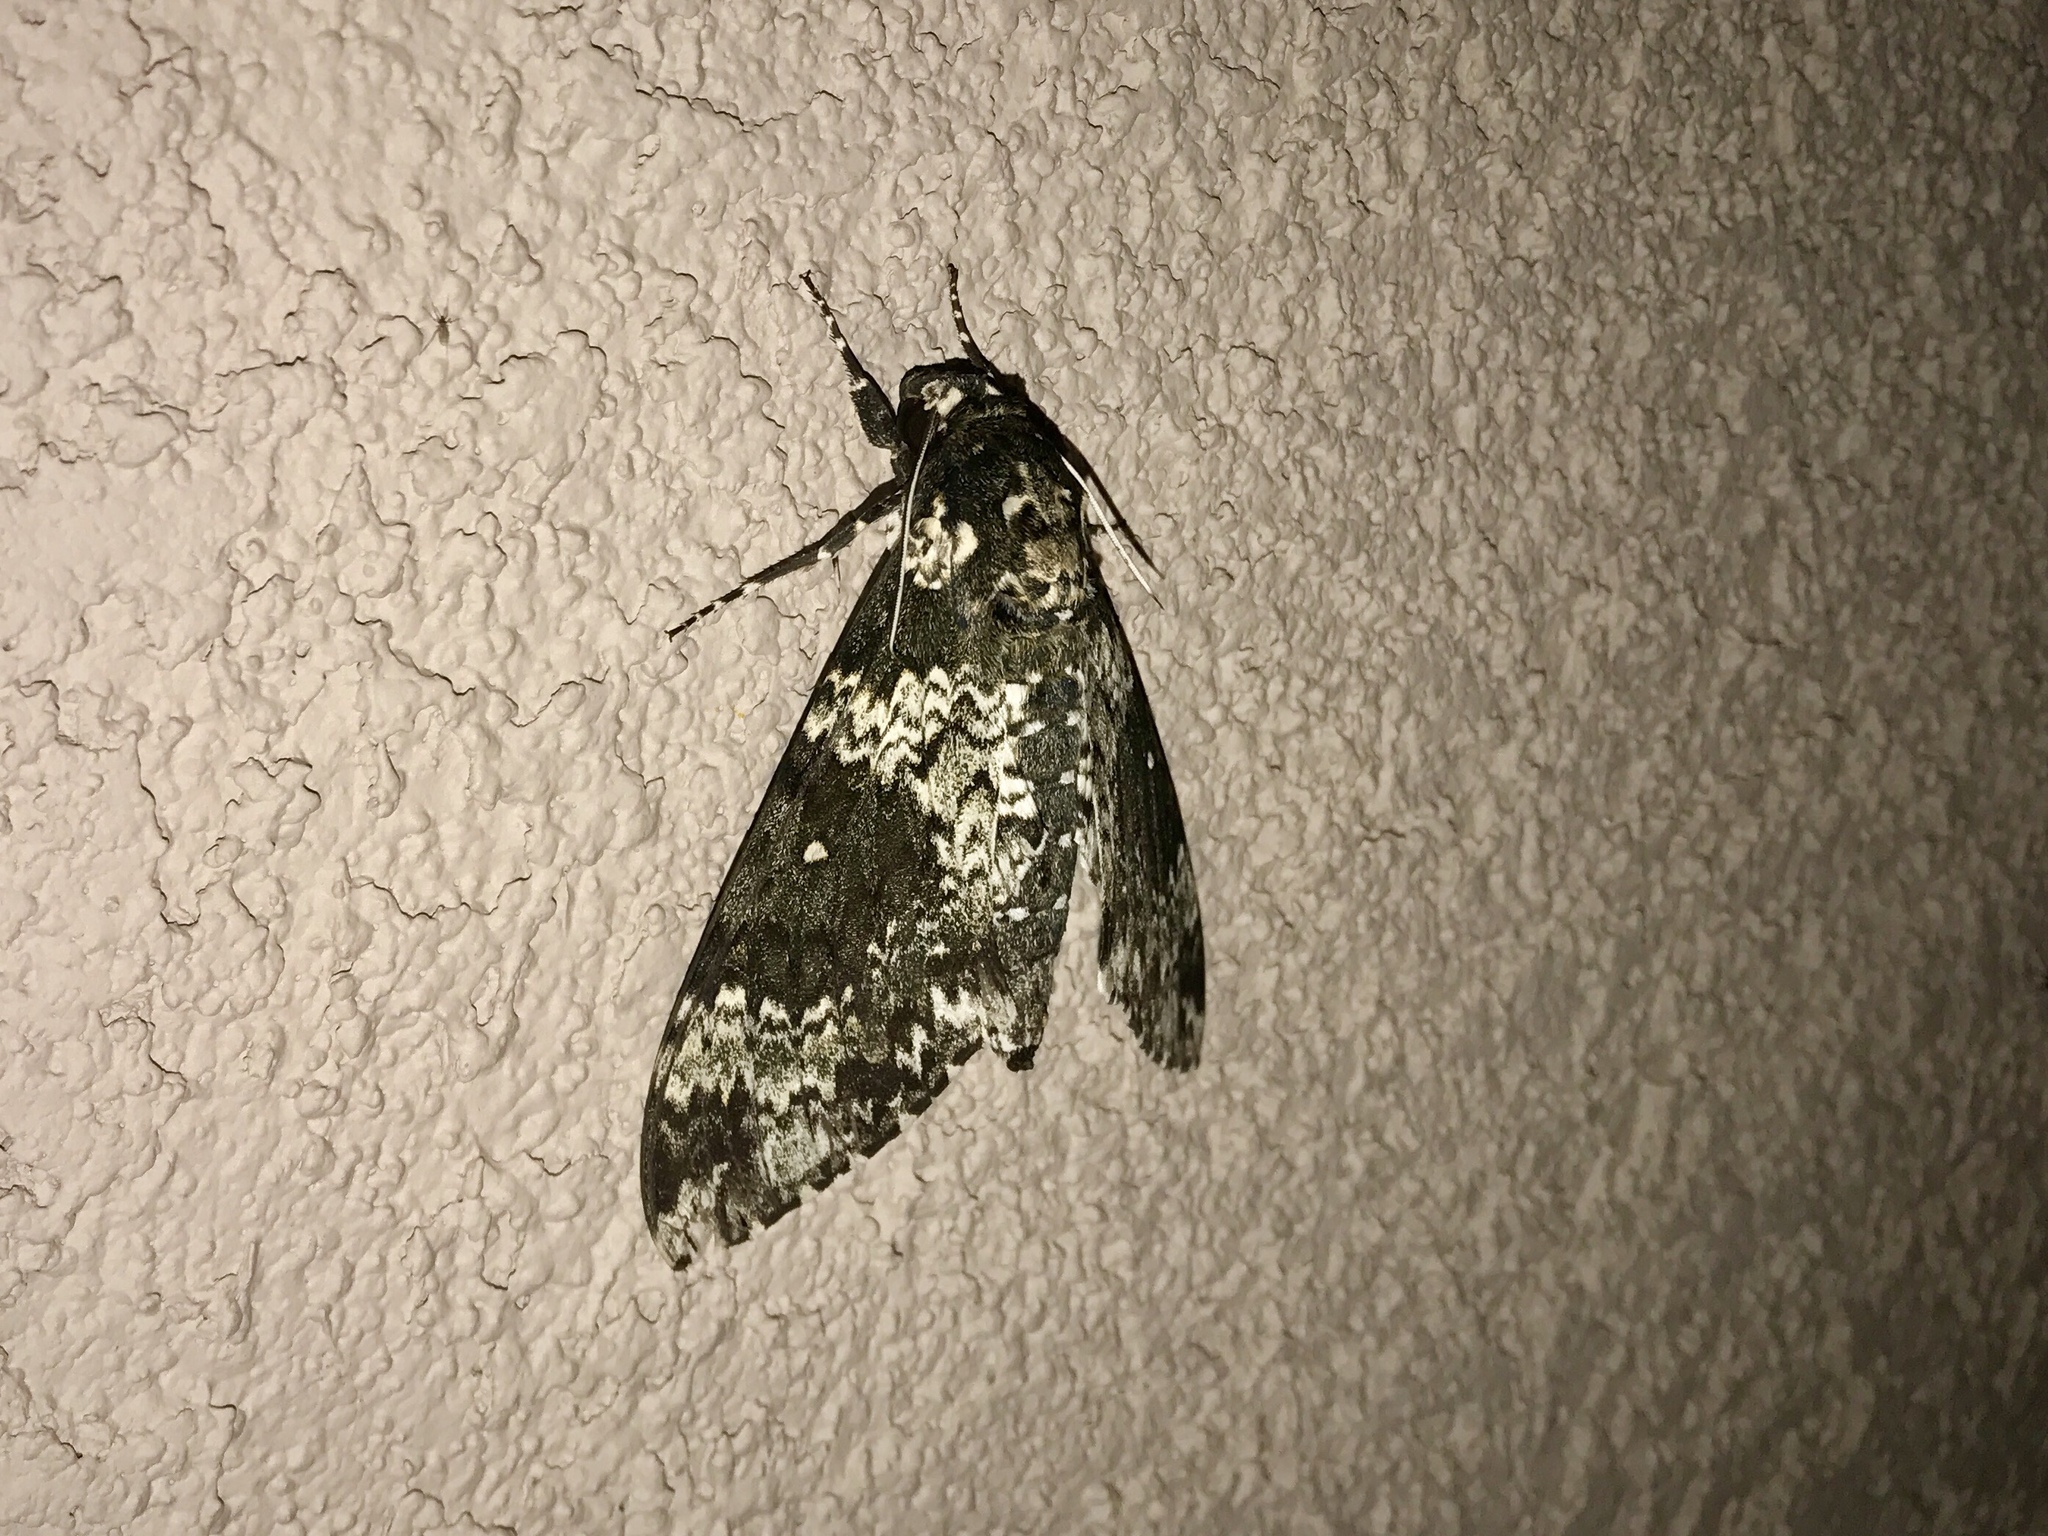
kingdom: Animalia
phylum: Arthropoda
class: Insecta
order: Lepidoptera
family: Sphingidae
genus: Manduca
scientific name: Manduca rustica
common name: Rustic sphinx
